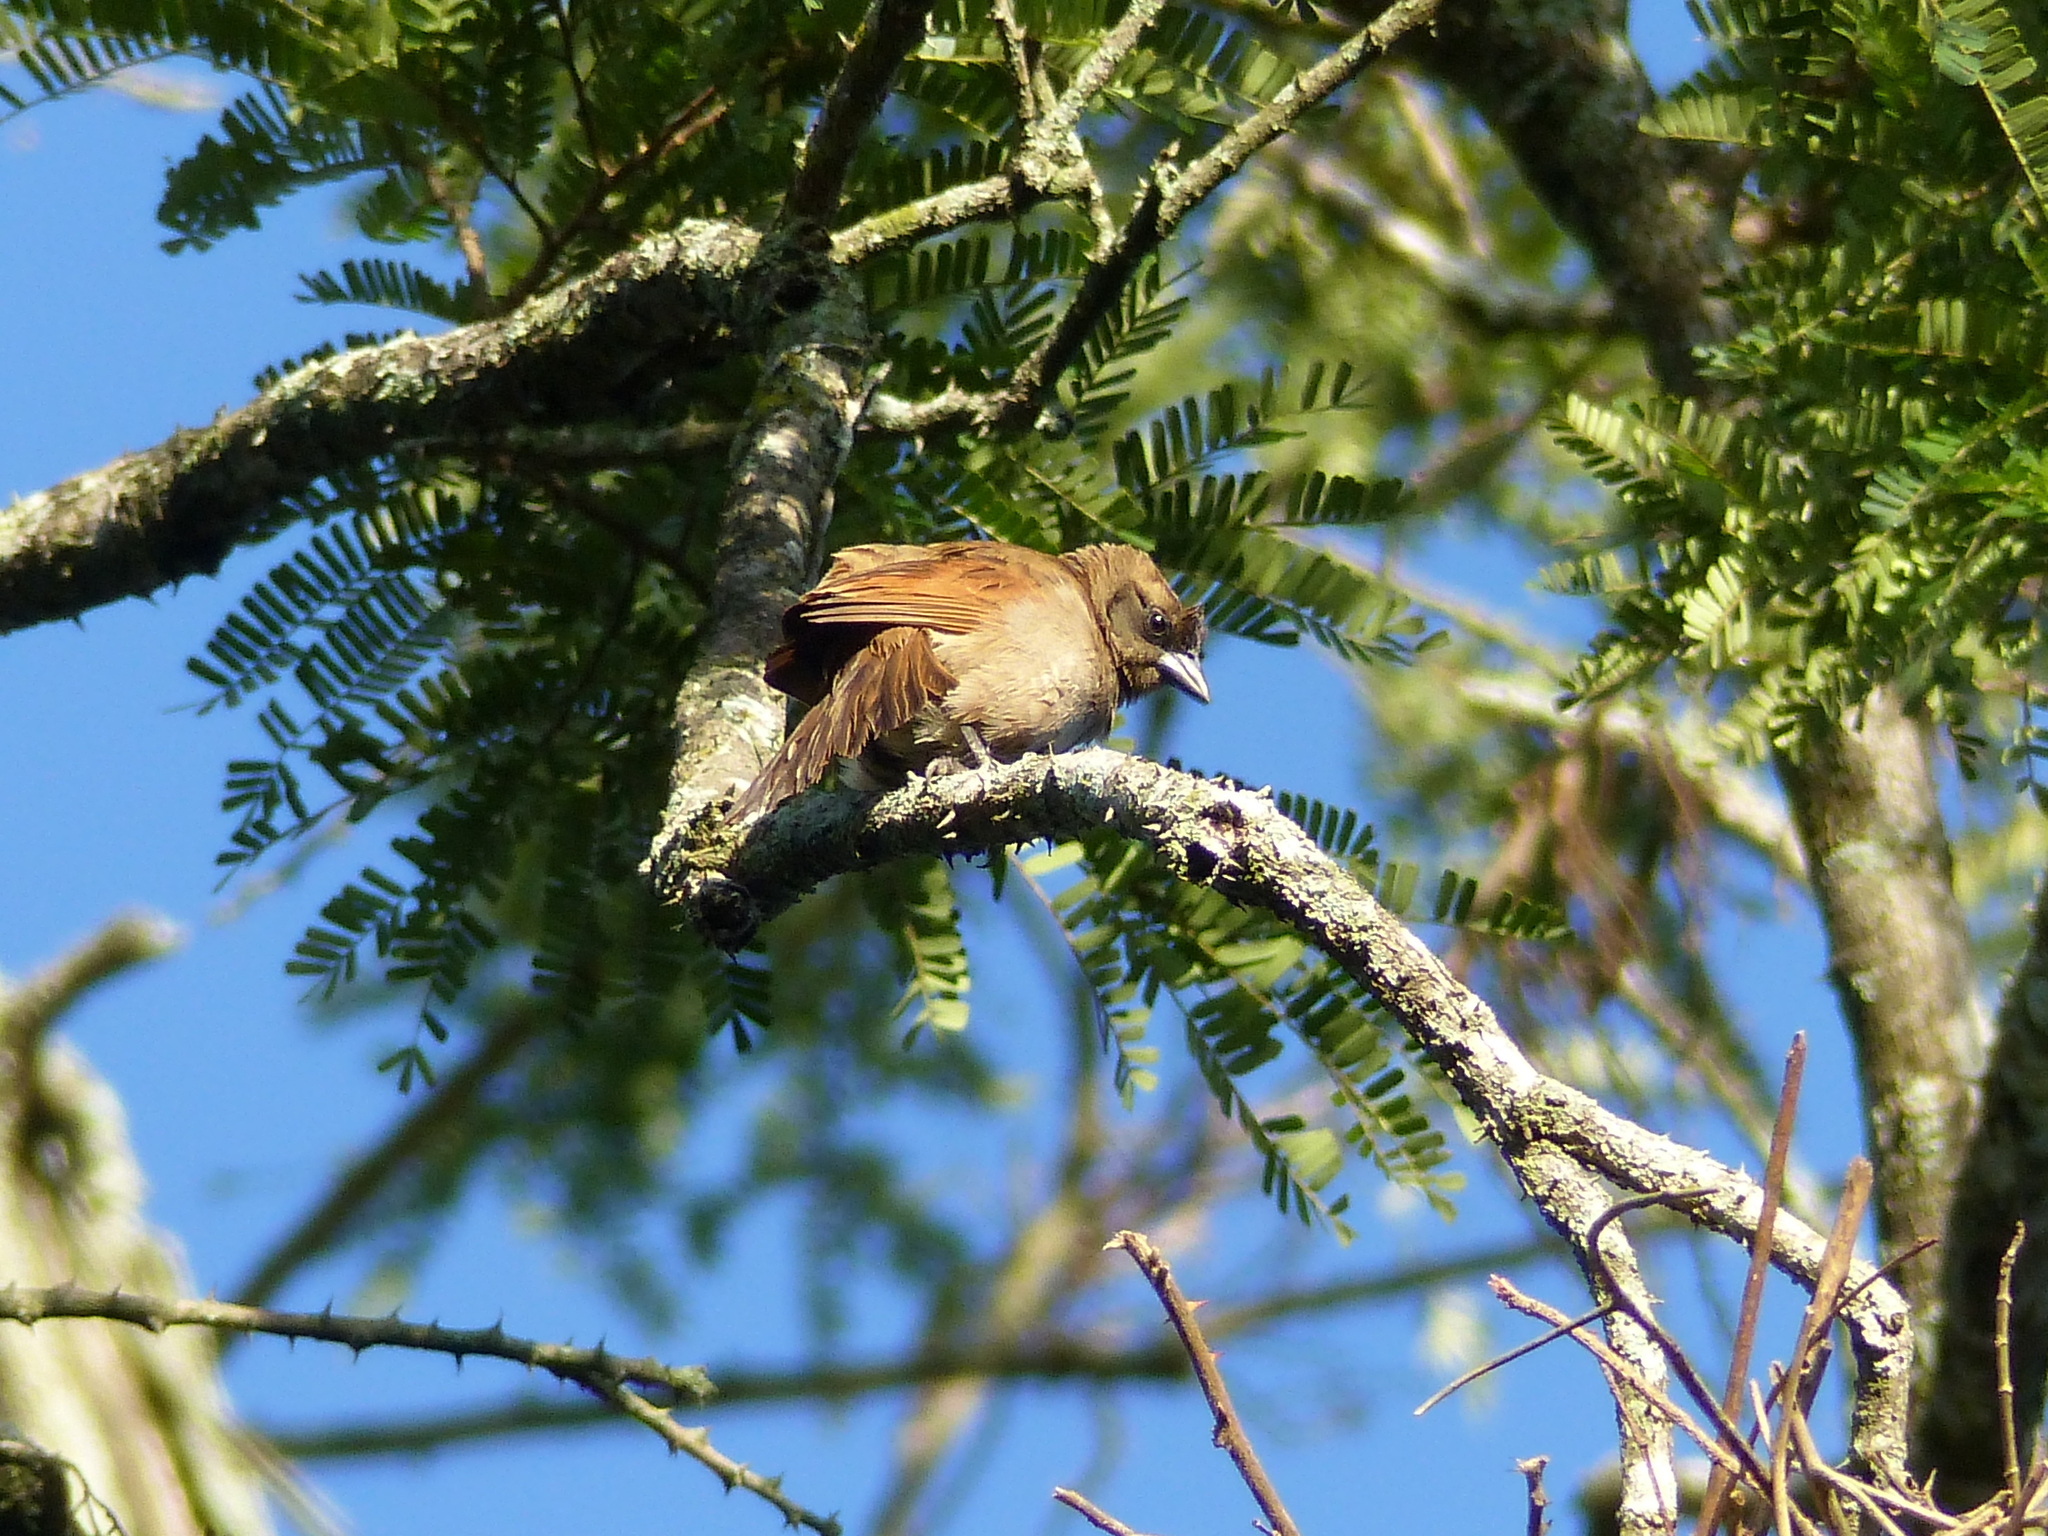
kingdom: Animalia
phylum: Chordata
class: Aves
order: Passeriformes
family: Icteridae
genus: Agelaioides
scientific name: Agelaioides badius
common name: Baywing
